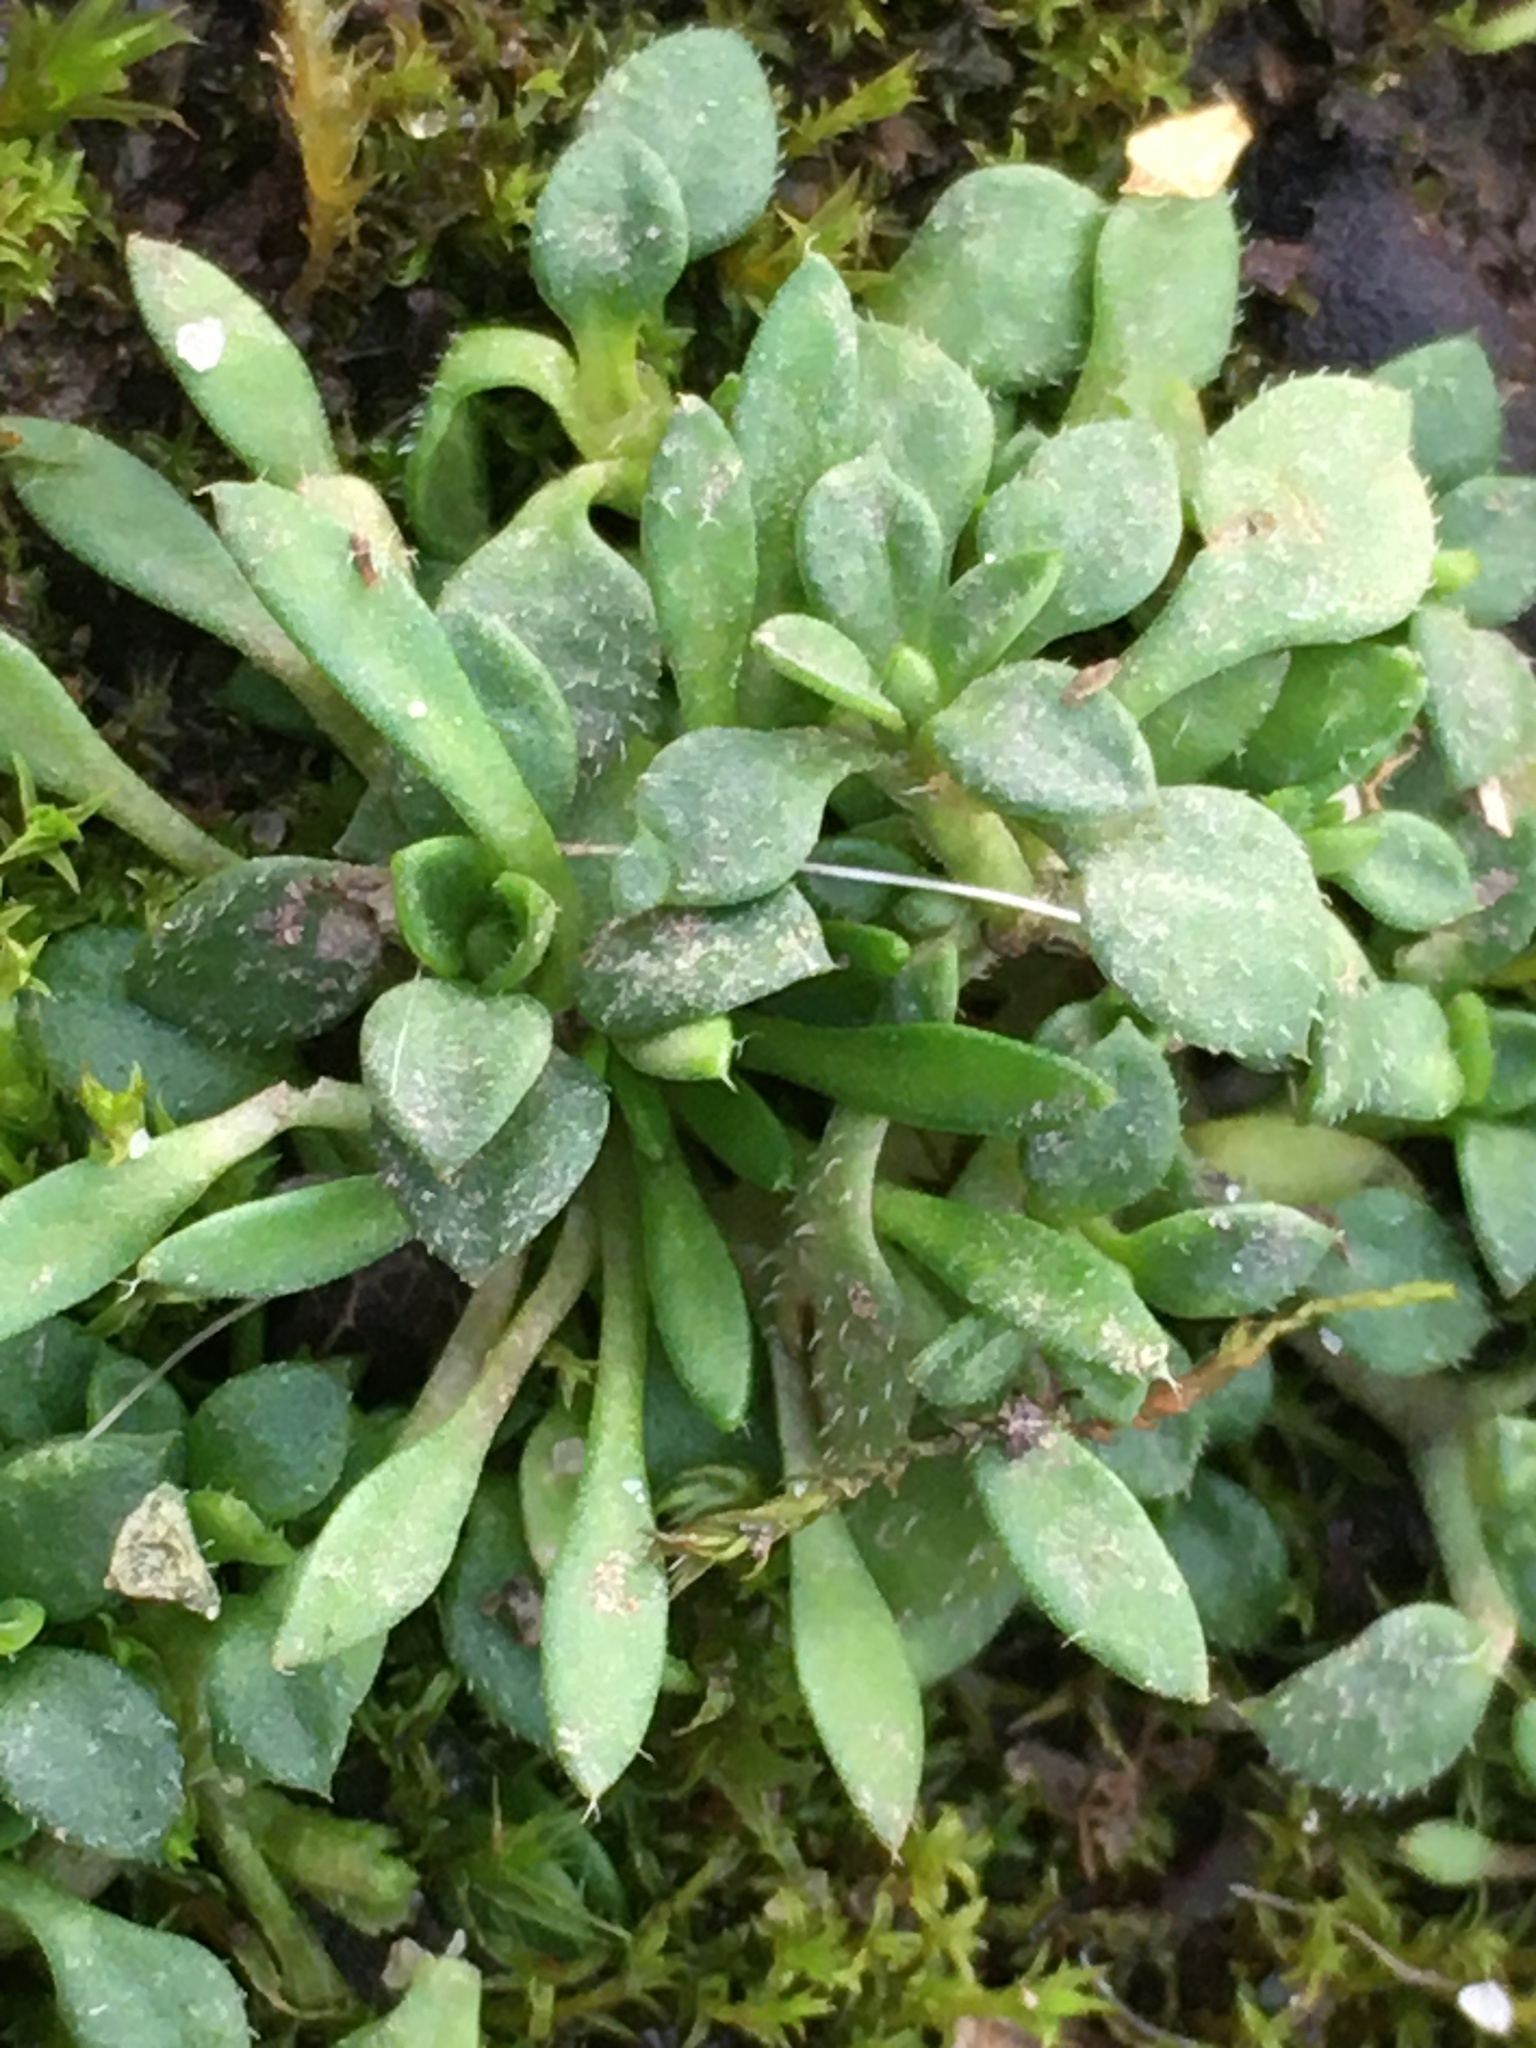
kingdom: Plantae
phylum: Tracheophyta
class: Magnoliopsida
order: Brassicales
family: Brassicaceae
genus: Draba
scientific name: Draba verna
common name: Spring draba
